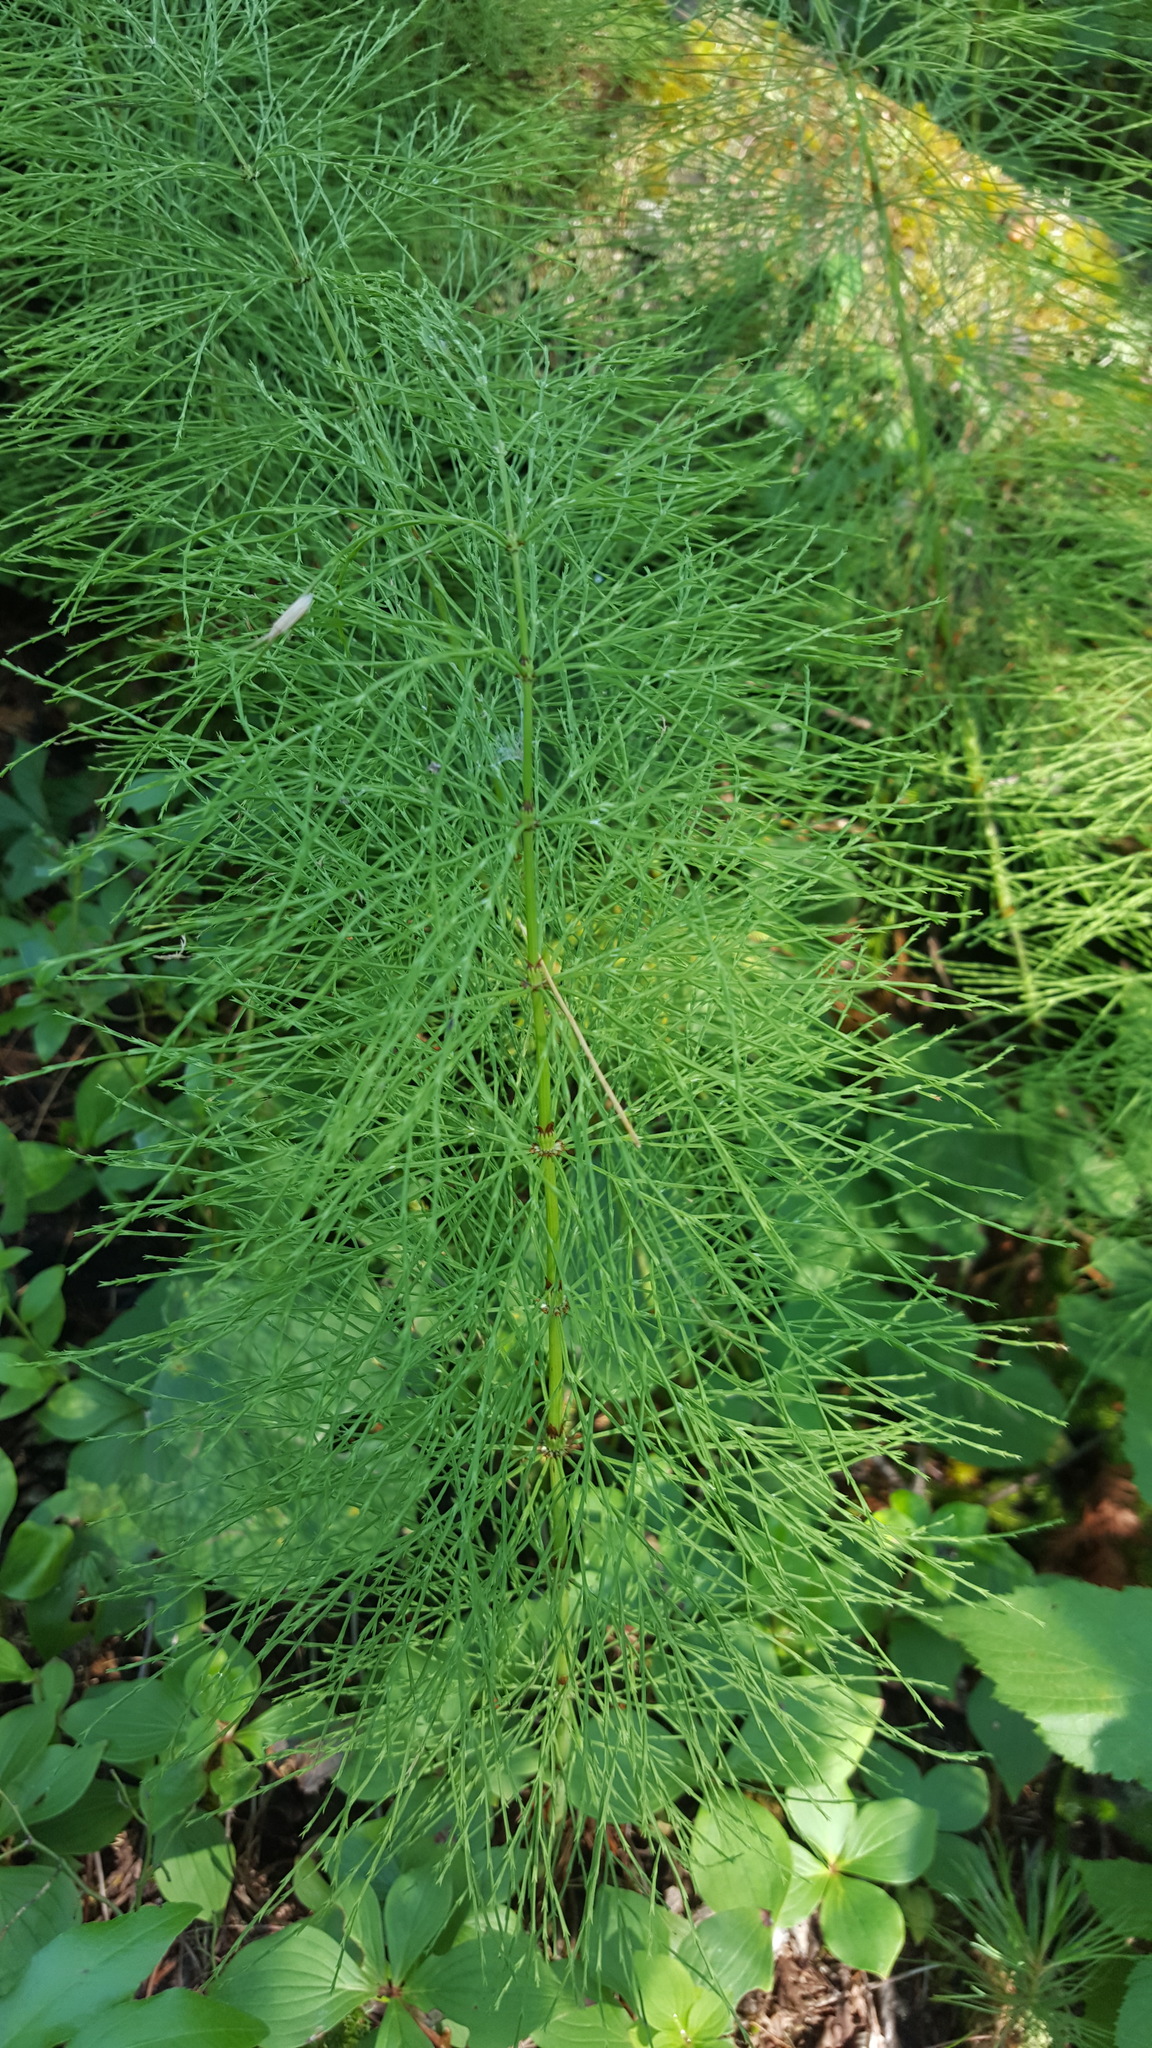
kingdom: Plantae
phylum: Tracheophyta
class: Polypodiopsida
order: Equisetales
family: Equisetaceae
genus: Equisetum
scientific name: Equisetum sylvaticum
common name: Wood horsetail
